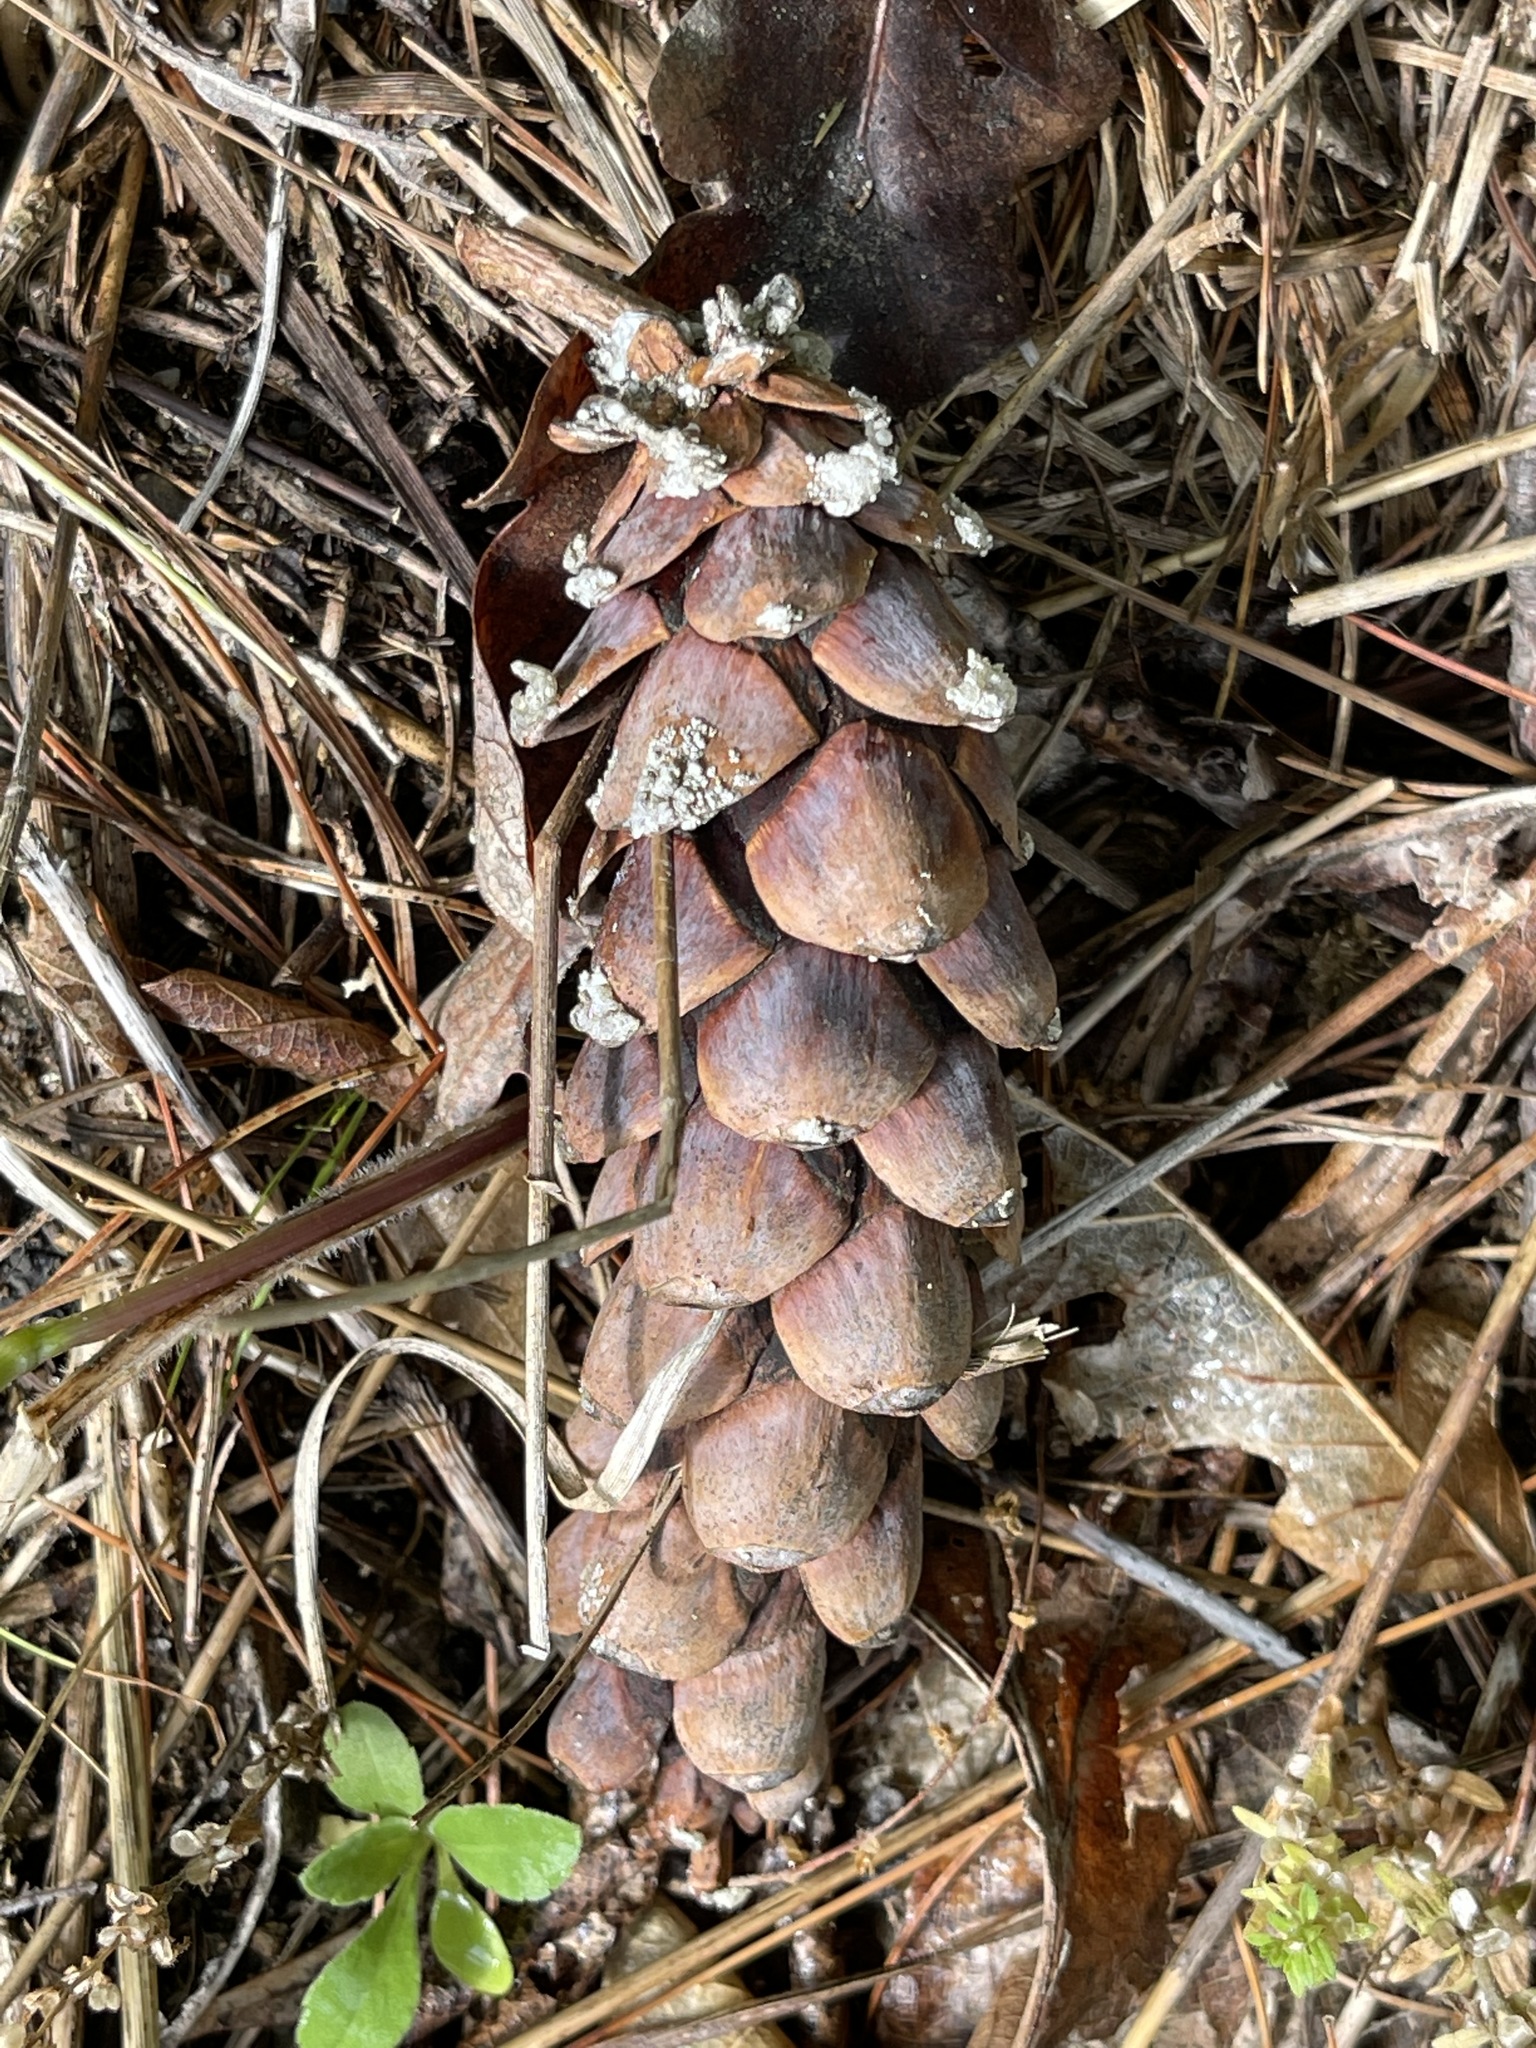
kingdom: Plantae
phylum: Tracheophyta
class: Pinopsida
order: Pinales
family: Pinaceae
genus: Pinus
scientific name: Pinus strobus
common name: Weymouth pine
